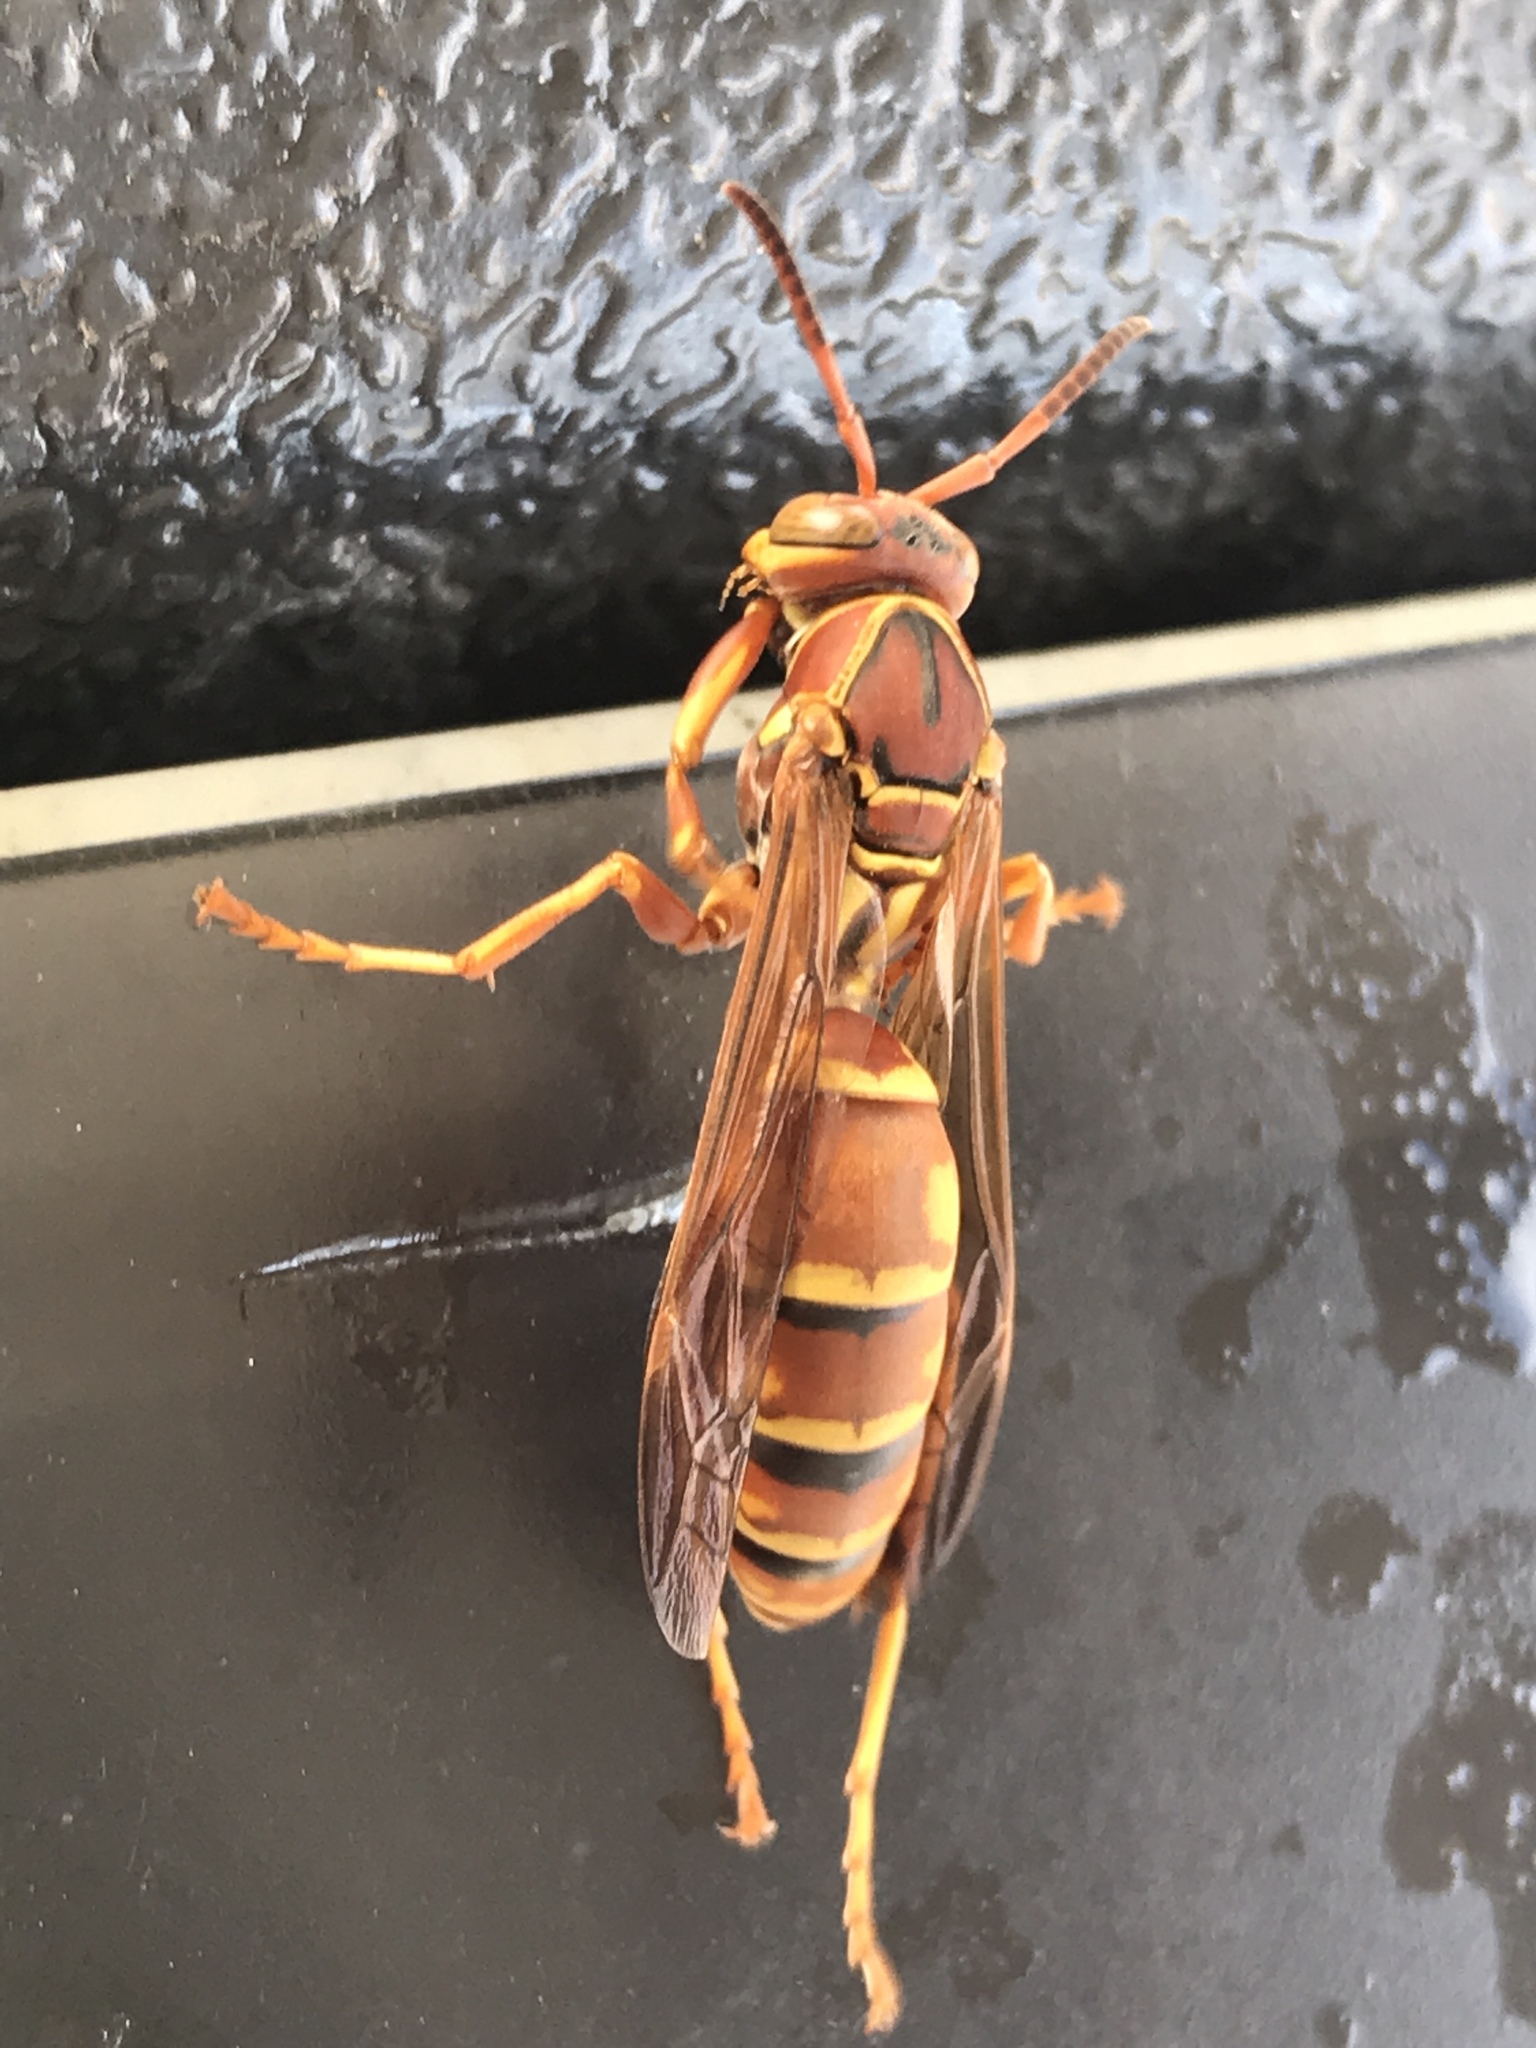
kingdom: Animalia
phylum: Arthropoda
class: Insecta
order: Hymenoptera
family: Eumenidae
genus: Polistes
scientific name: Polistes aurifer
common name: Paper wasp
